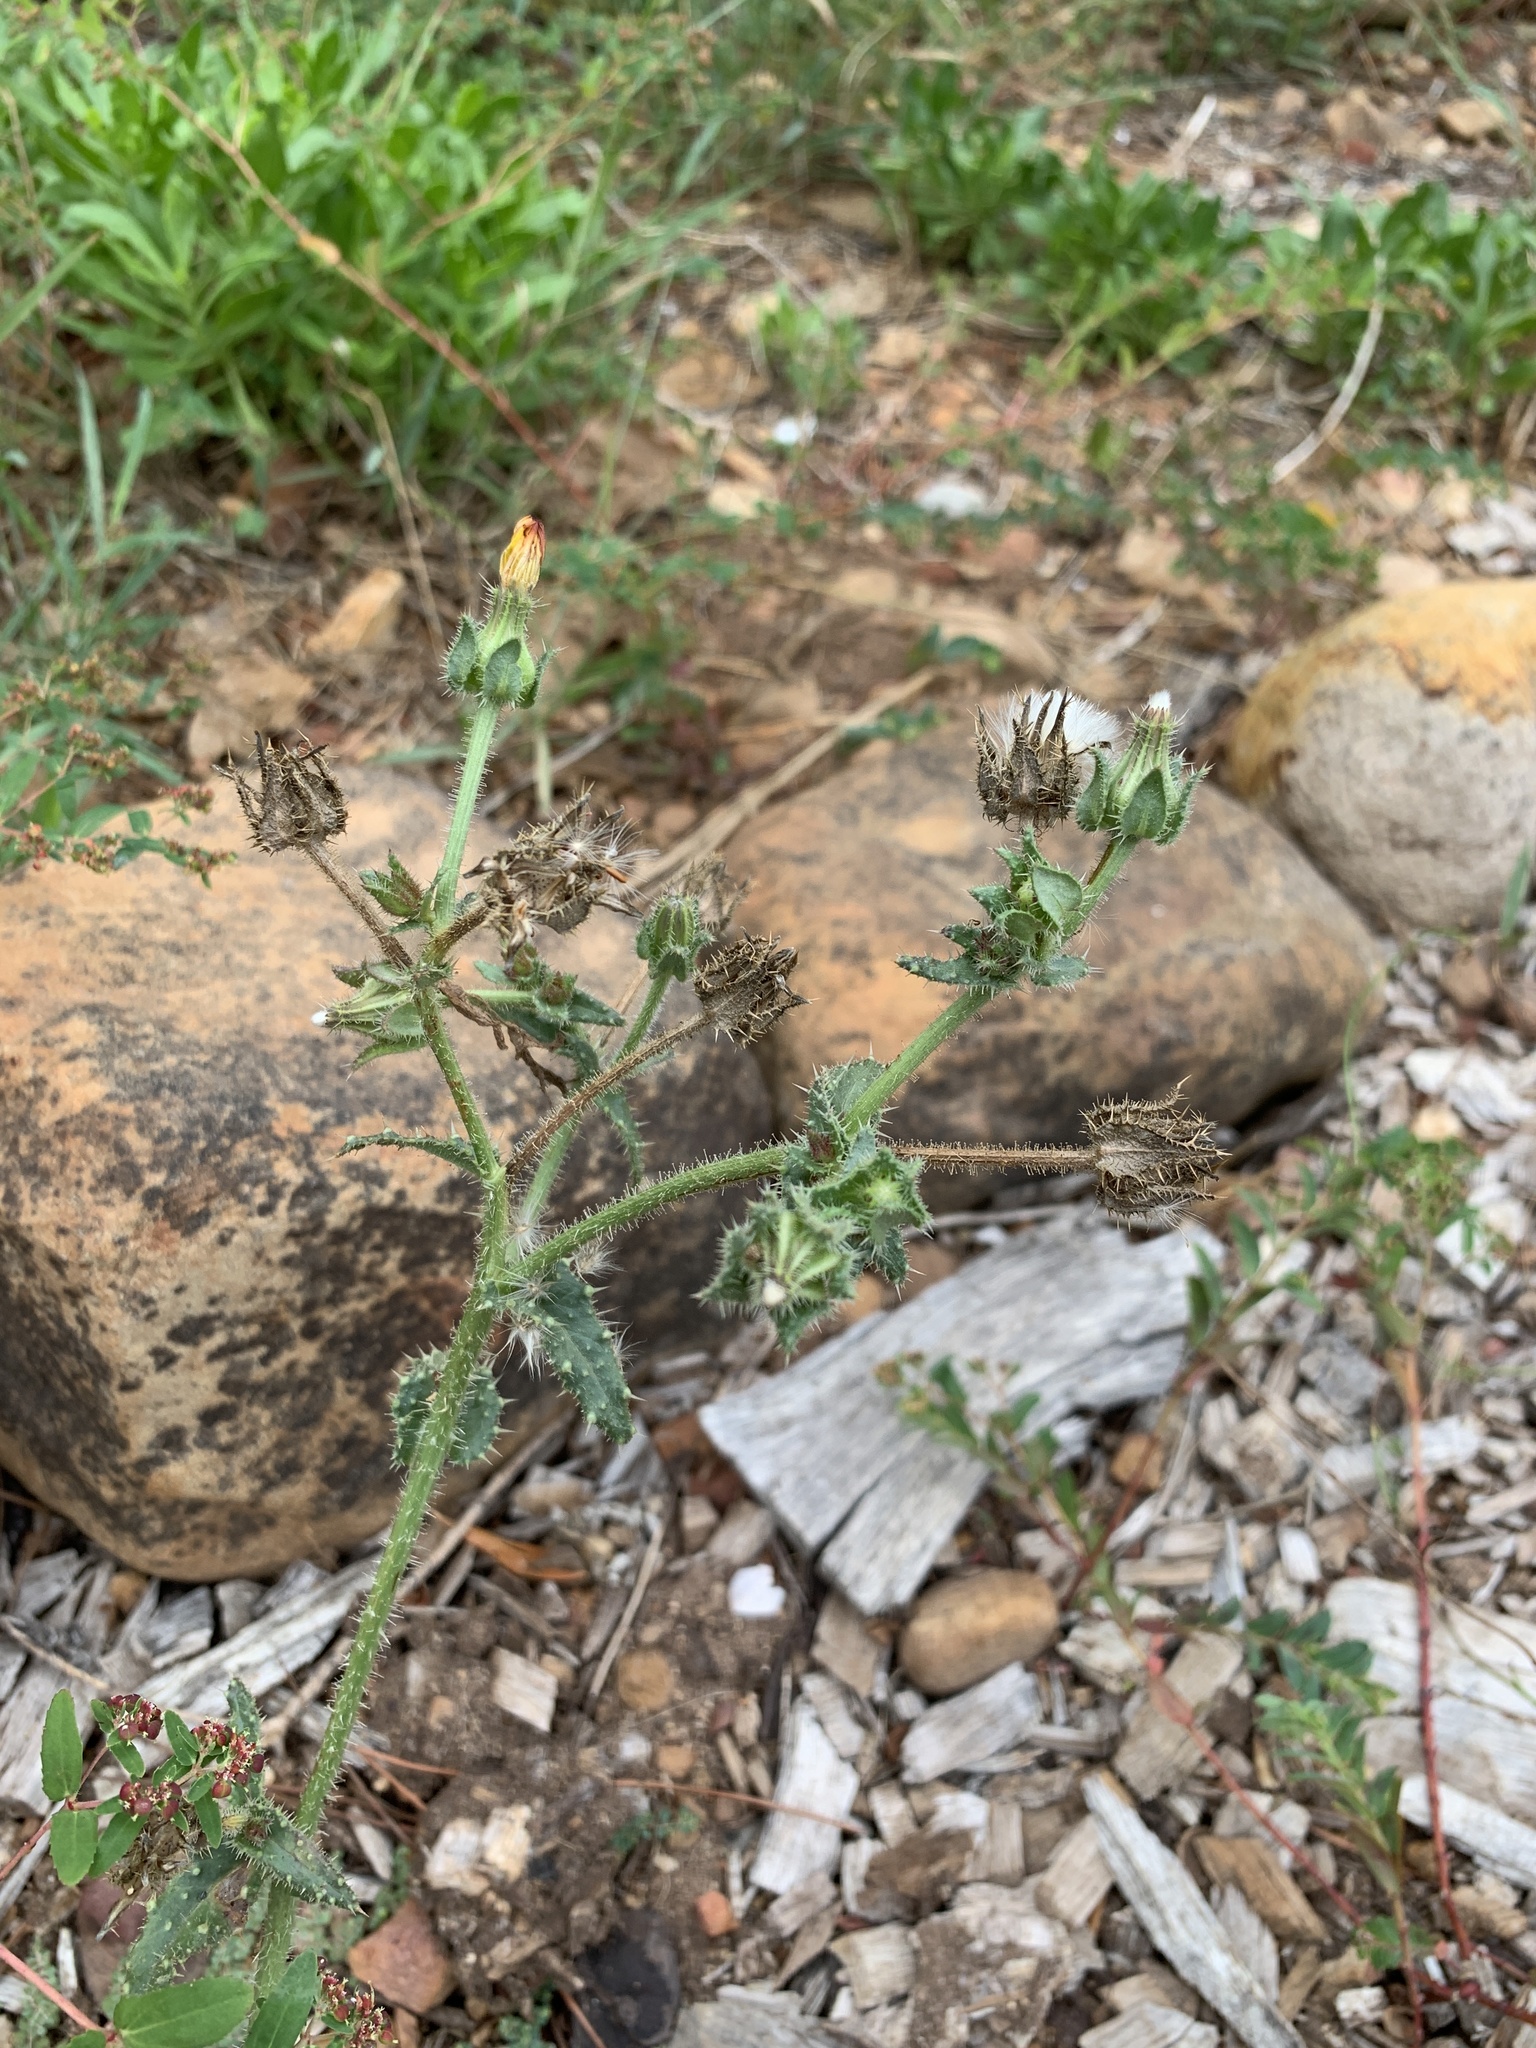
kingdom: Plantae
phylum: Tracheophyta
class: Magnoliopsida
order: Asterales
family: Asteraceae
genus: Helminthotheca
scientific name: Helminthotheca echioides
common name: Ox-tongue
